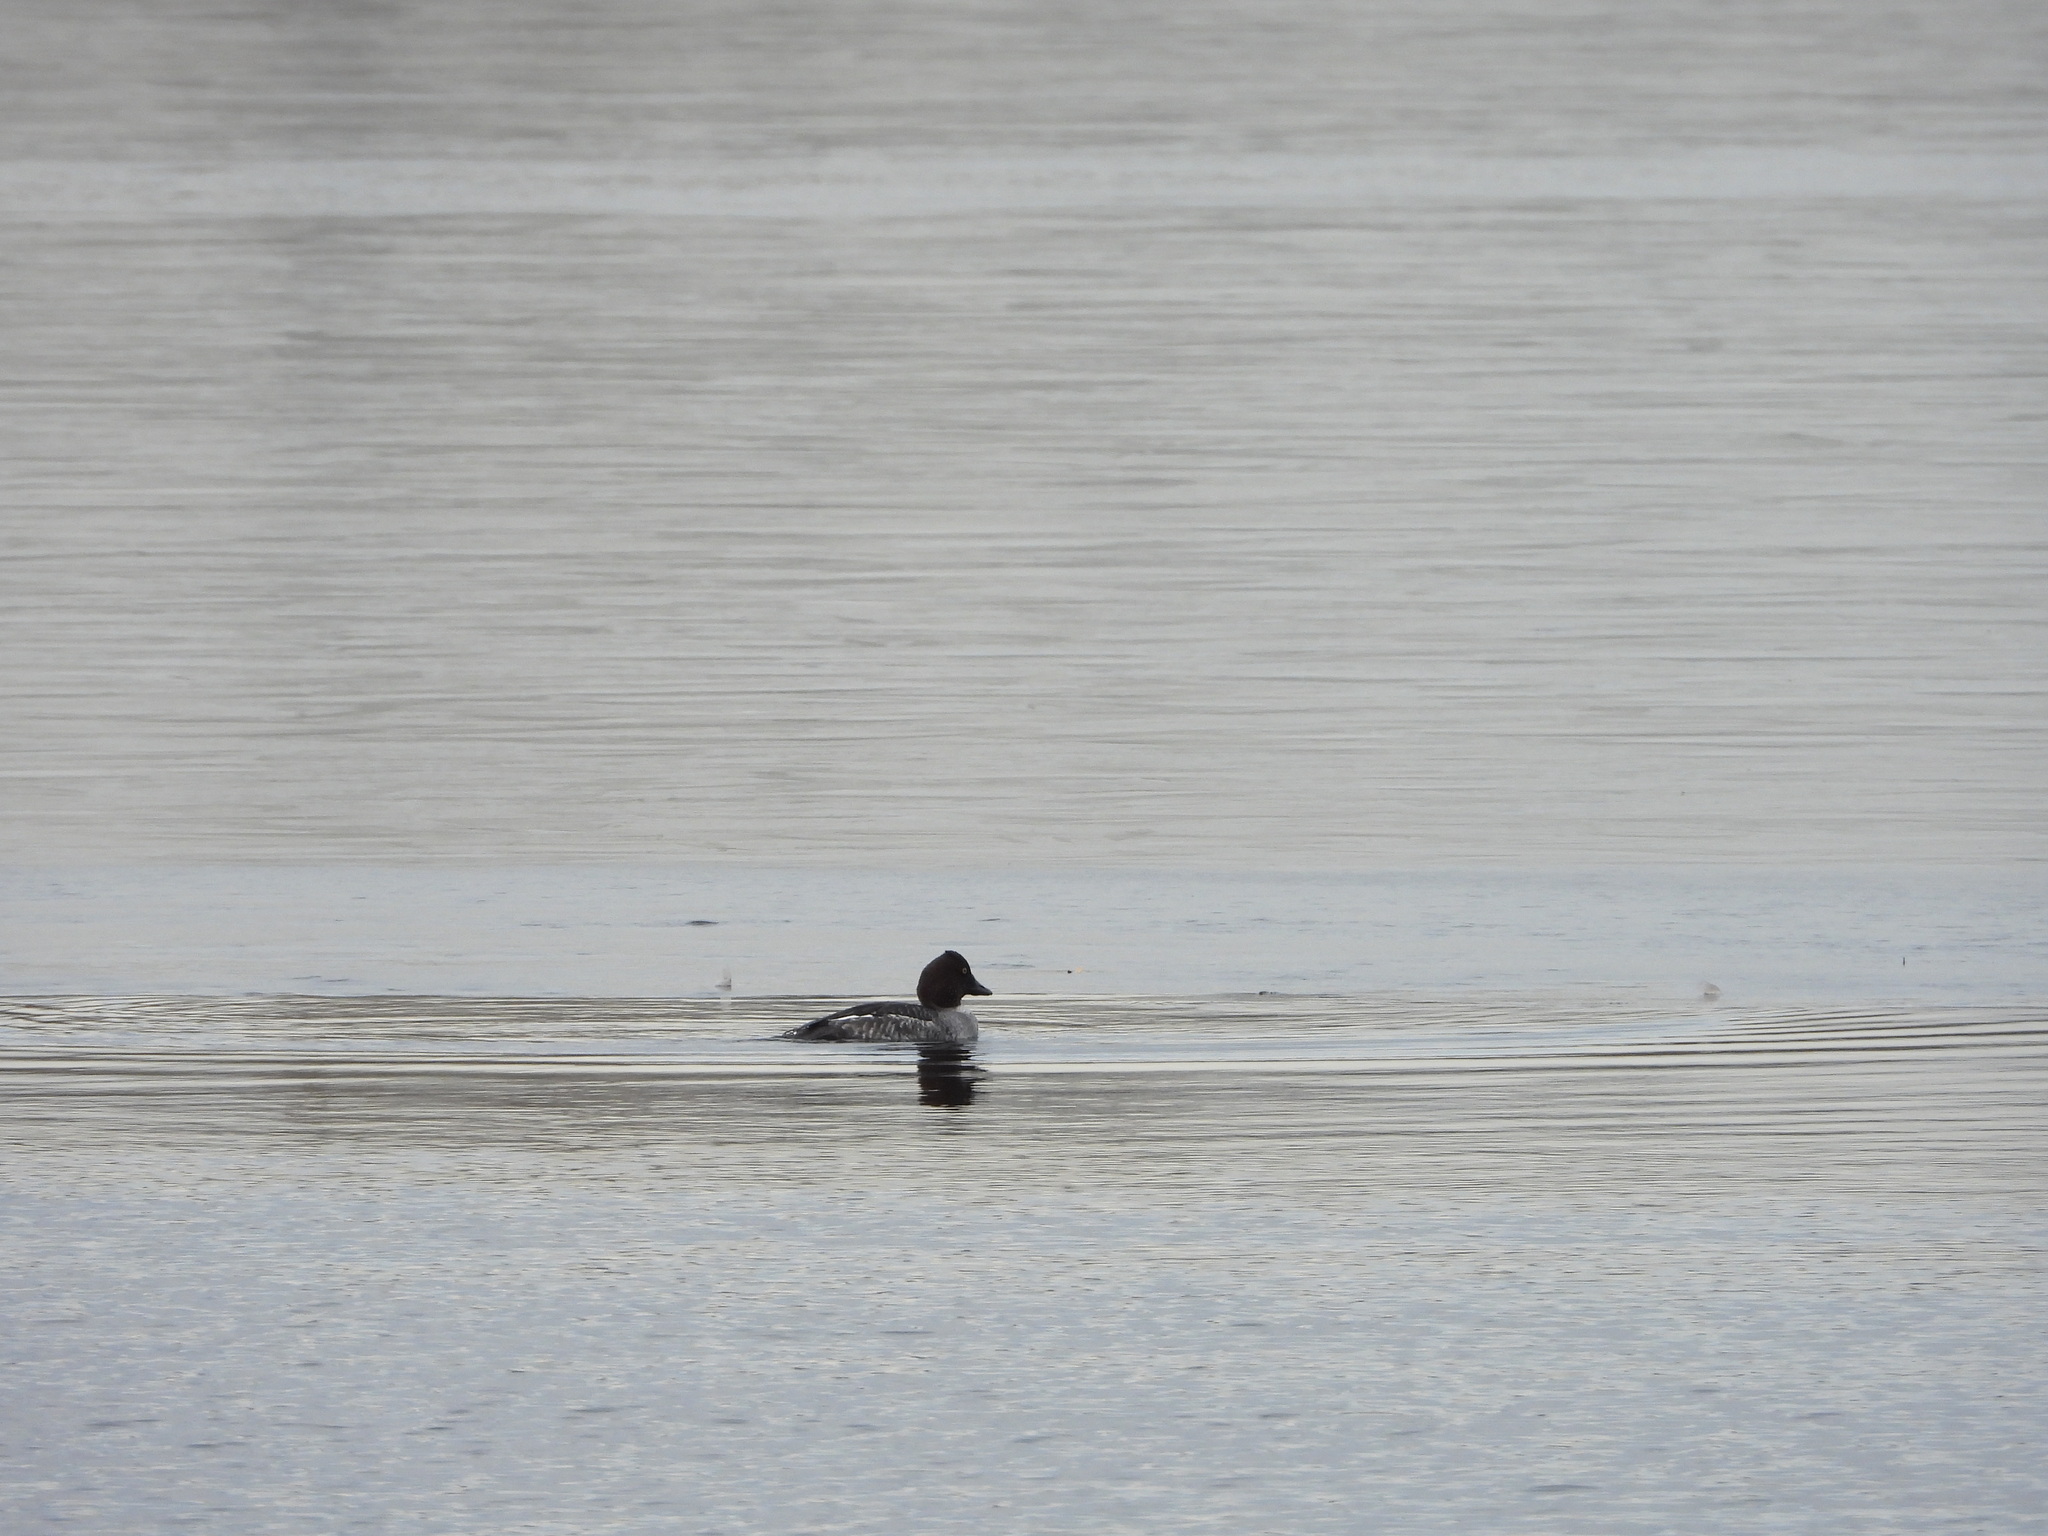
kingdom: Animalia
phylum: Chordata
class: Aves
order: Anseriformes
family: Anatidae
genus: Bucephala
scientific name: Bucephala clangula
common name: Common goldeneye
